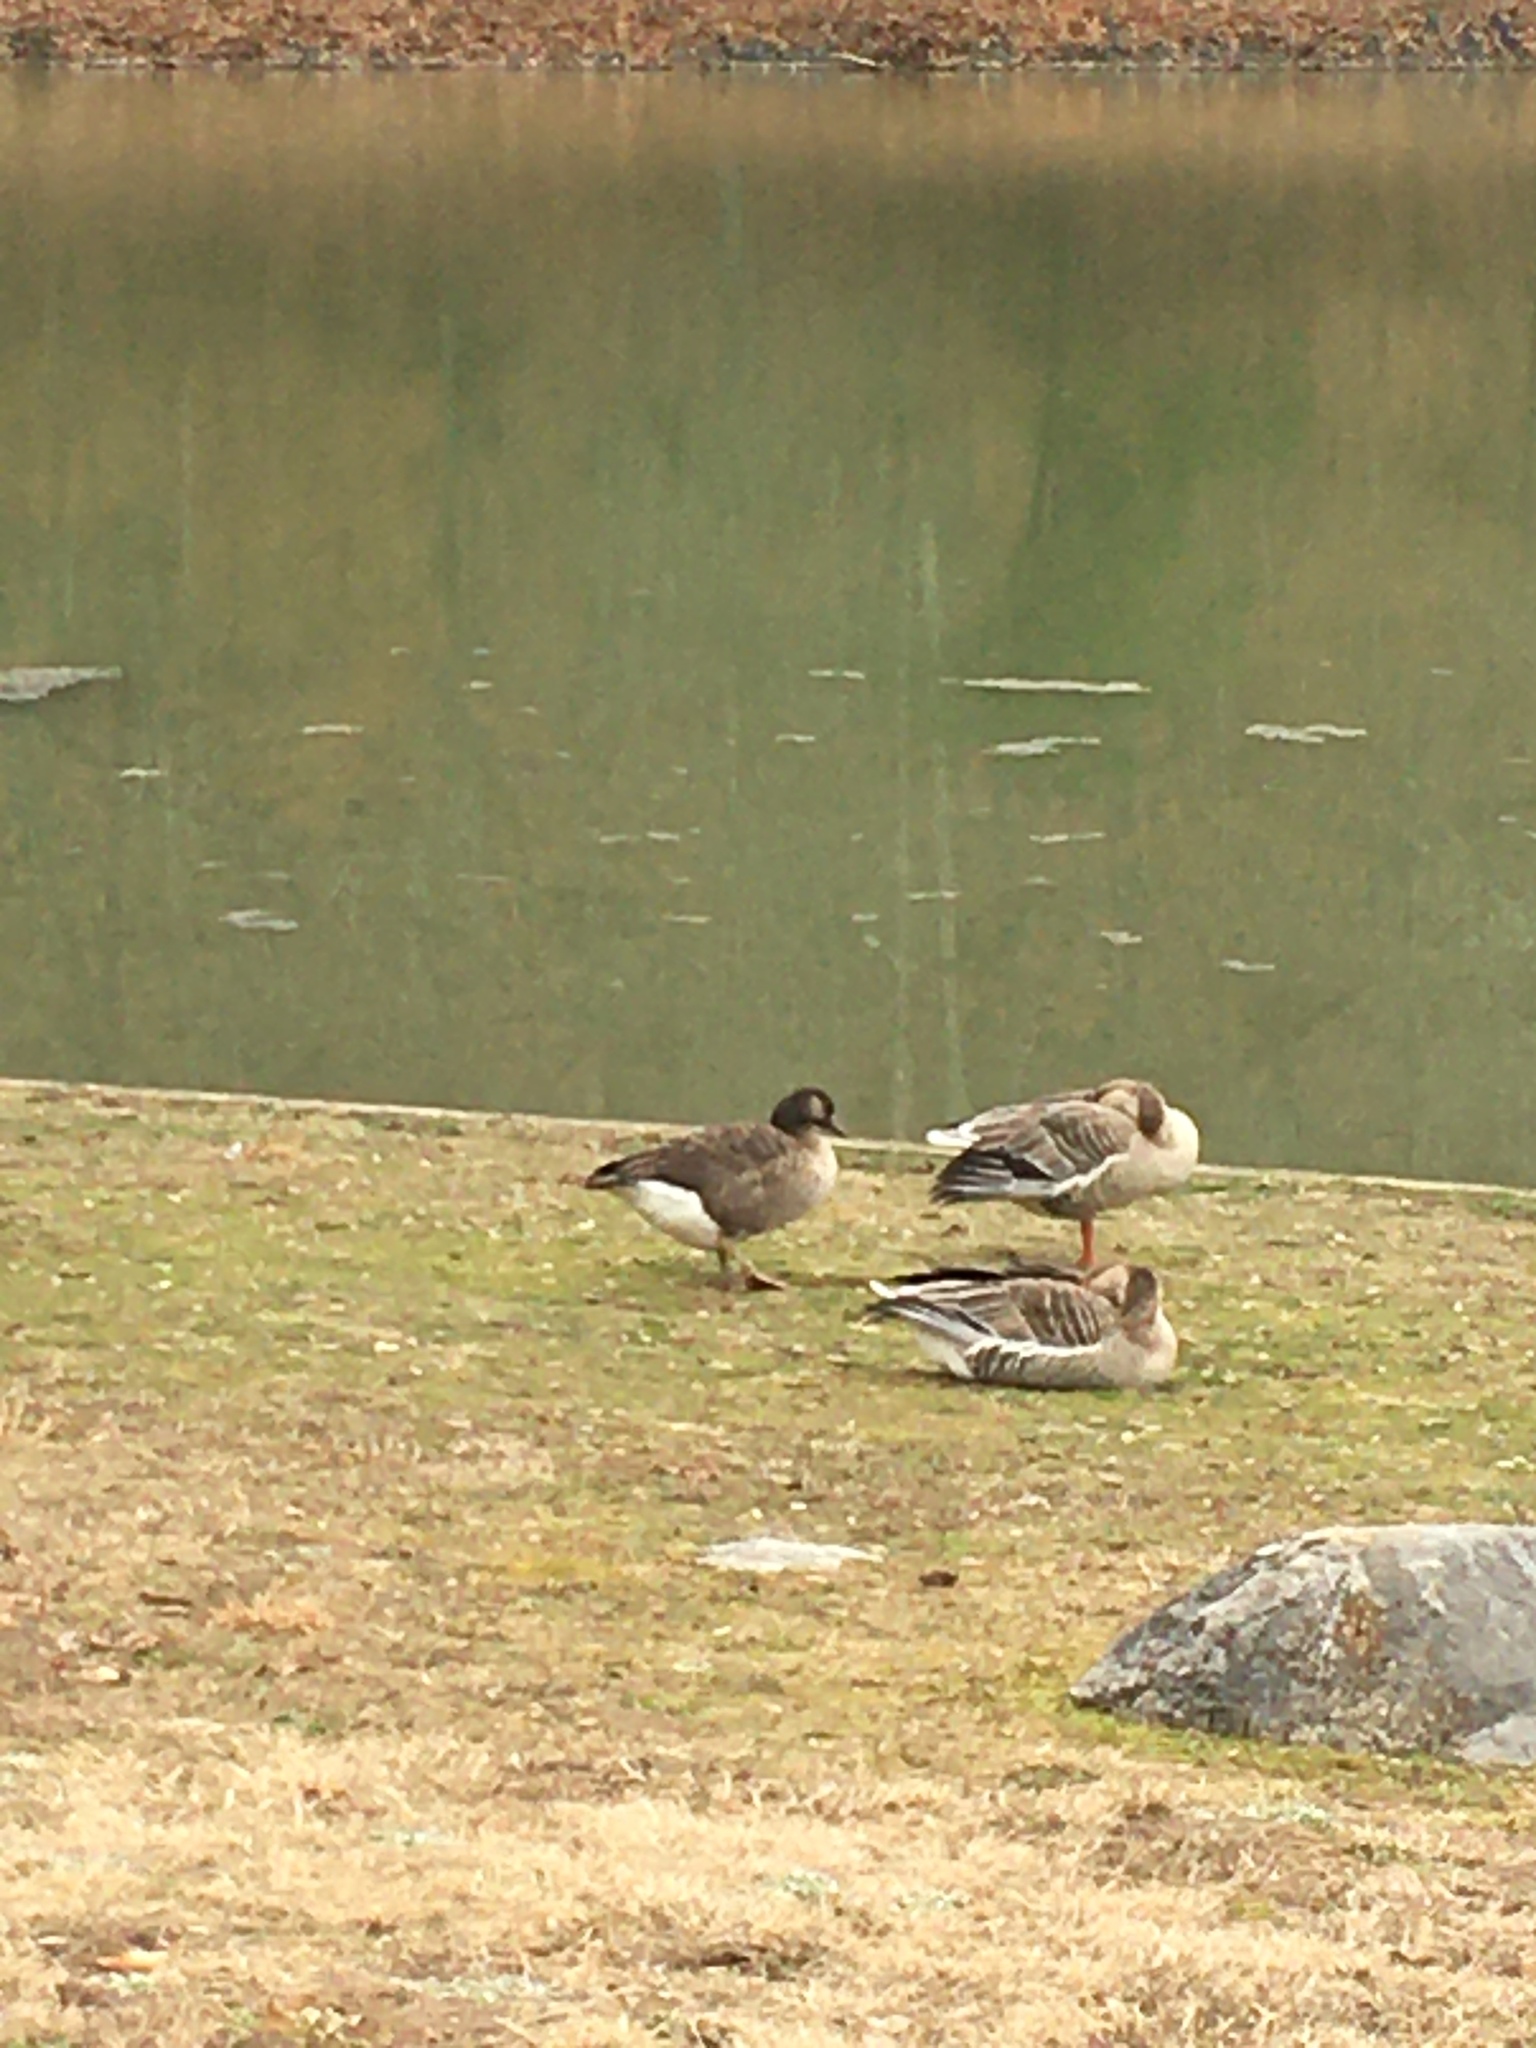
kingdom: Animalia
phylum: Chordata
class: Aves
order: Anseriformes
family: Anatidae
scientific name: Anatidae
